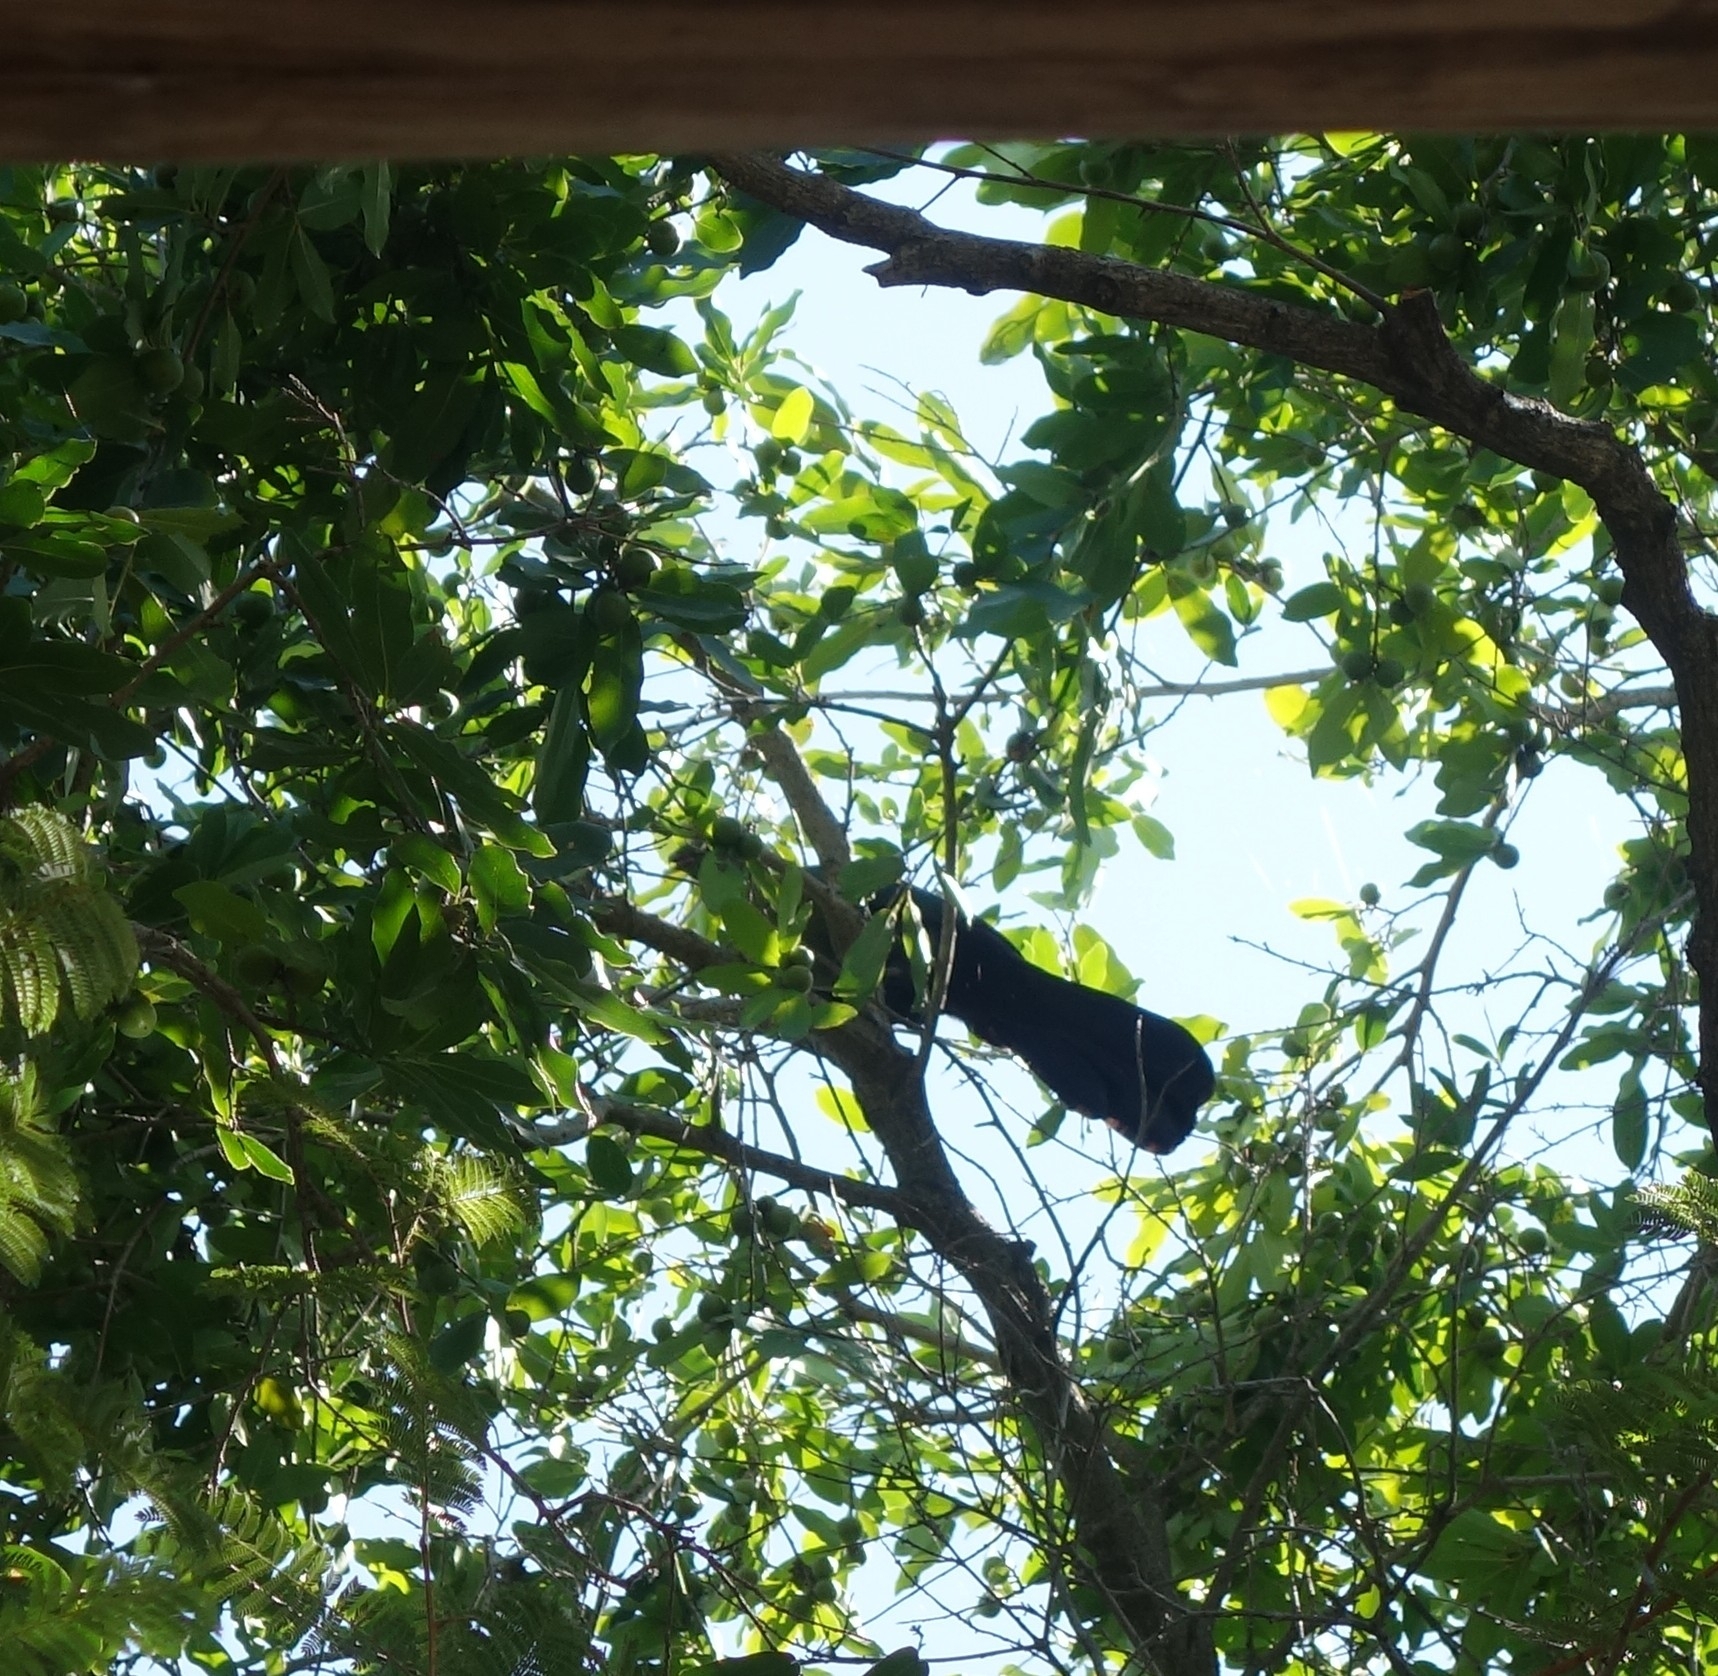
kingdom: Animalia
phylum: Chordata
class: Aves
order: Musophagiformes
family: Musophagidae
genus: Tauraco
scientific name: Tauraco schalowi
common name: Schalow's turaco
